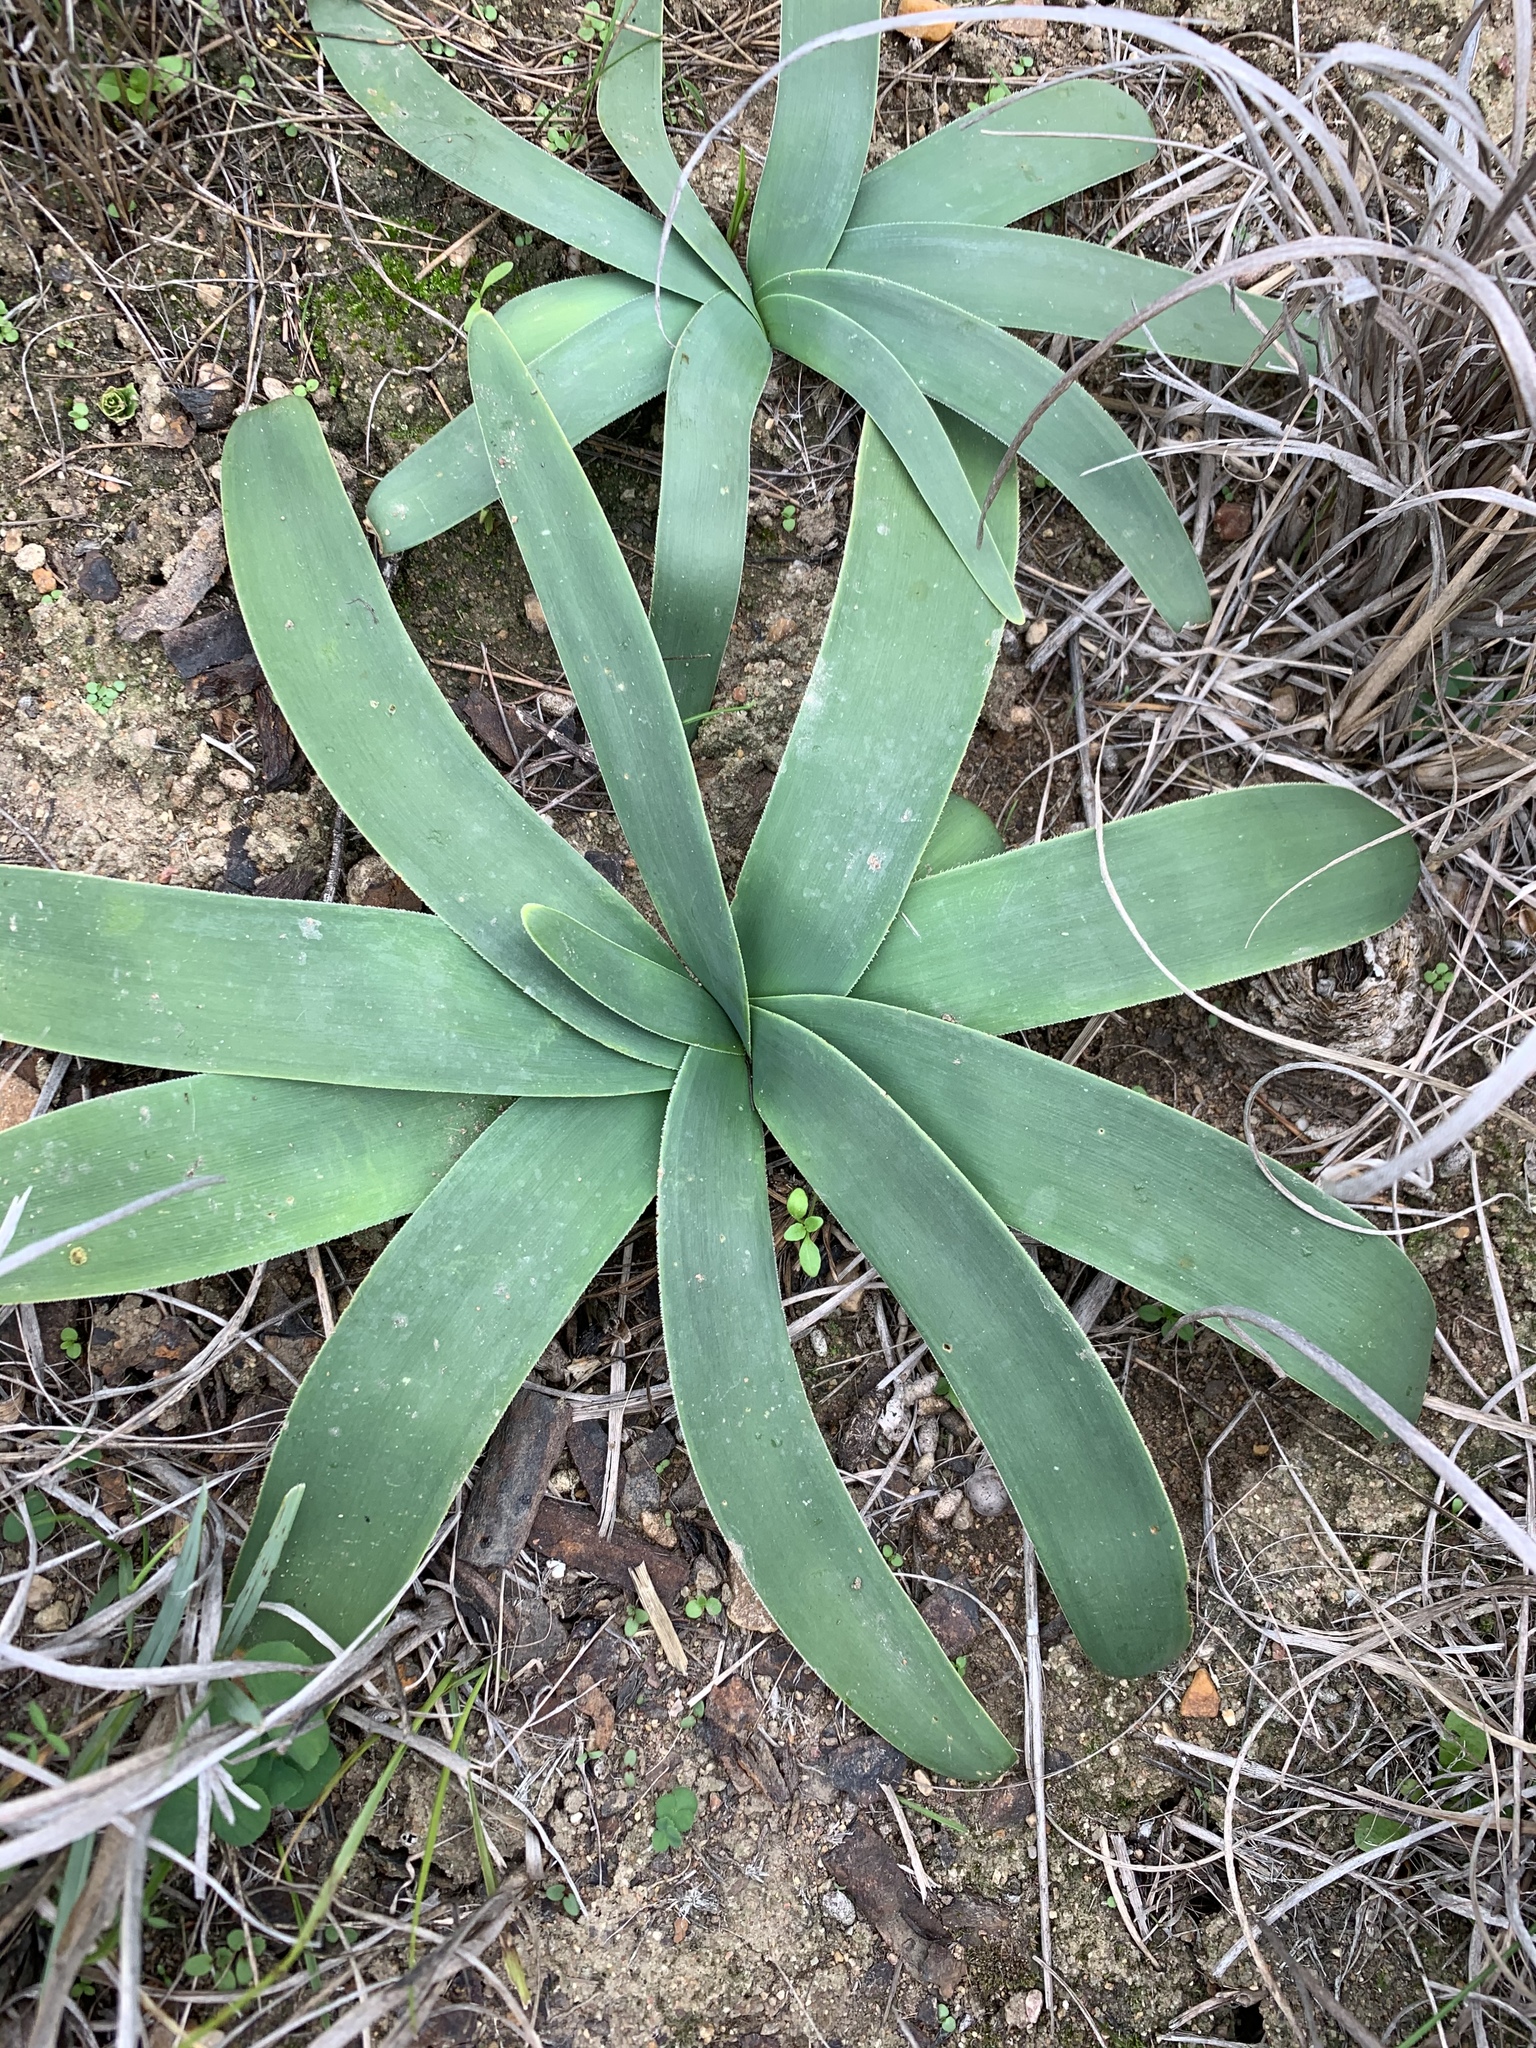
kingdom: Plantae
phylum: Tracheophyta
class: Liliopsida
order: Asparagales
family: Amaryllidaceae
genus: Ammocharis
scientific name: Ammocharis longifolia
